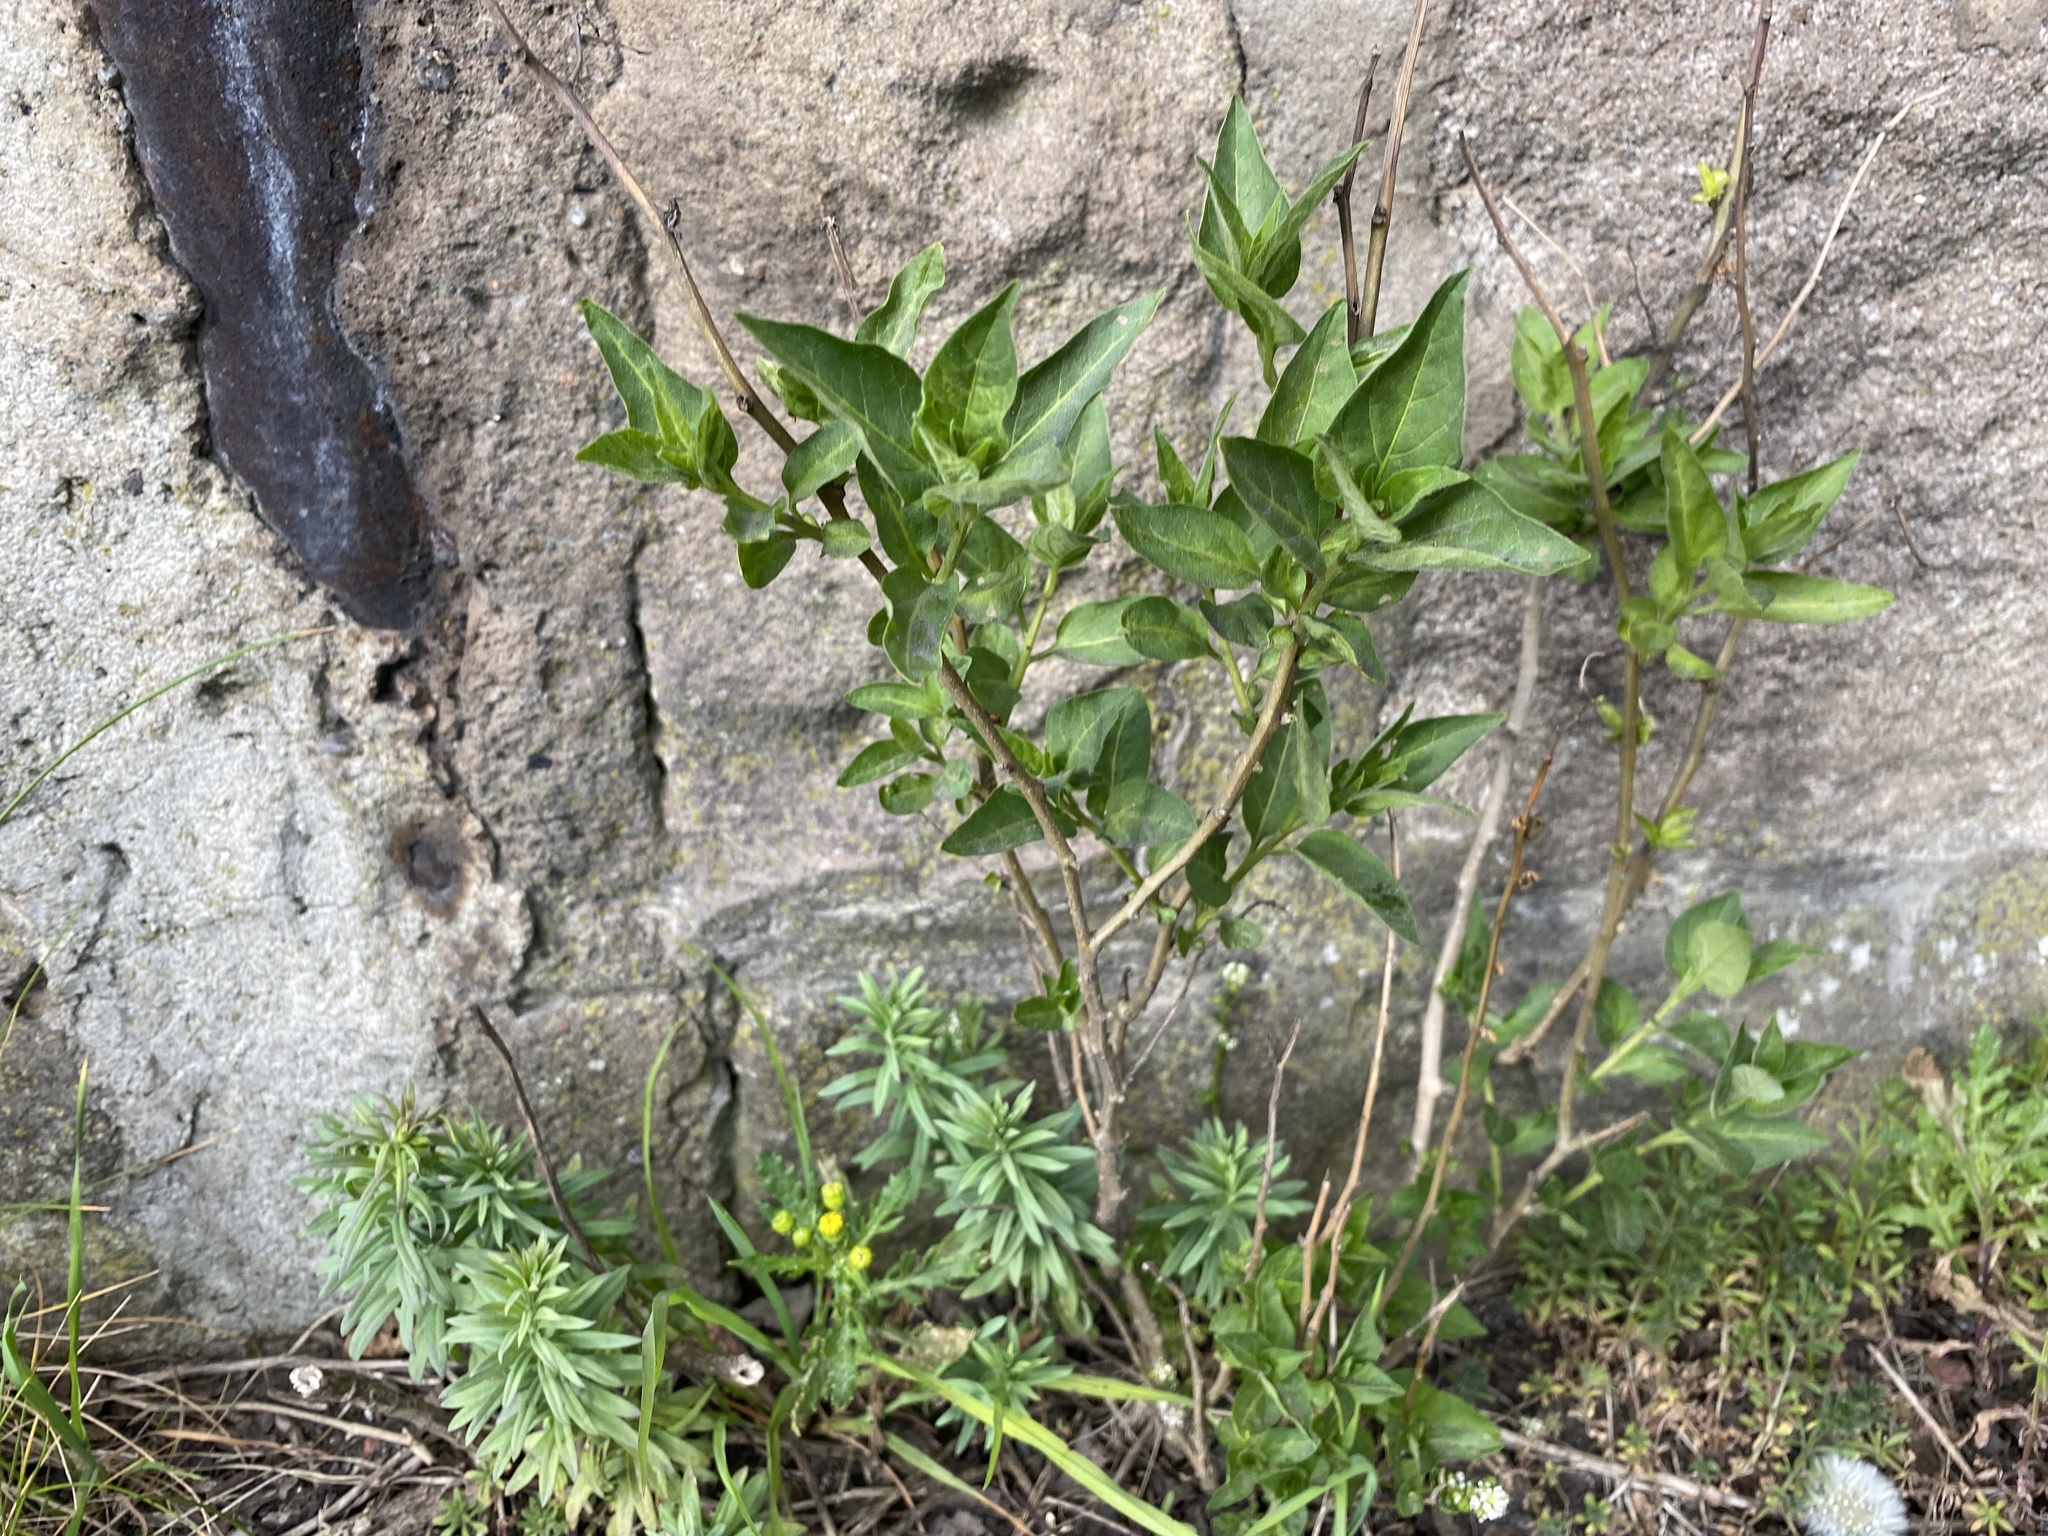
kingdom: Plantae
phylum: Tracheophyta
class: Magnoliopsida
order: Solanales
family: Solanaceae
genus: Solanum
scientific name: Solanum dulcamara
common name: Climbing nightshade
